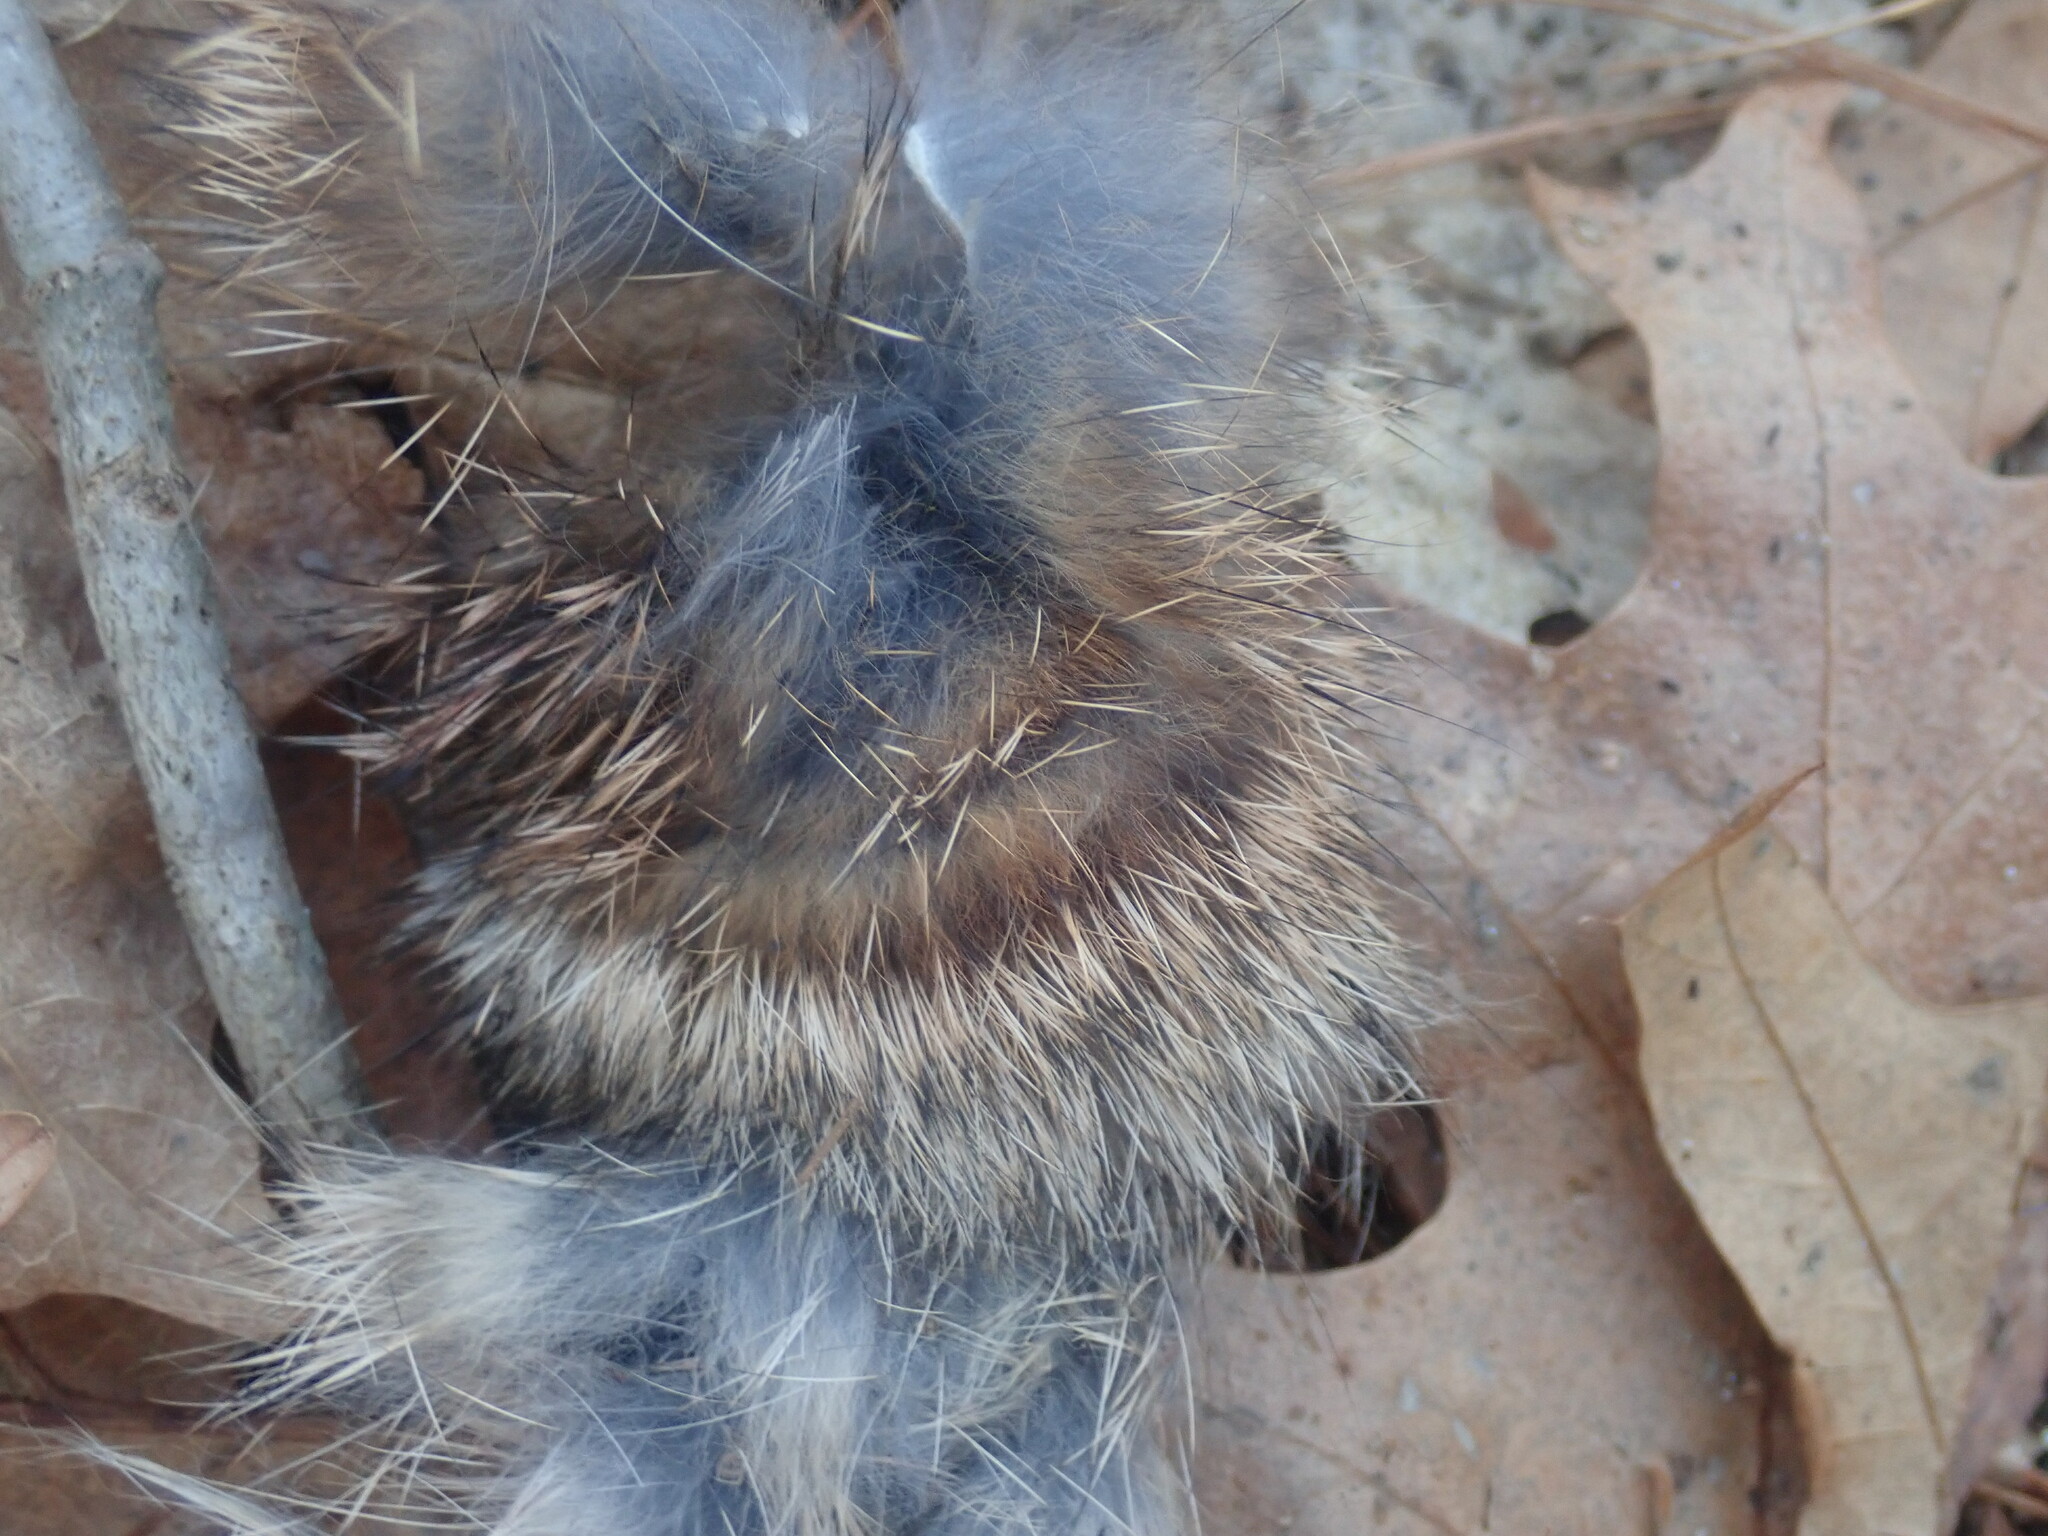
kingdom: Animalia
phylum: Chordata
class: Mammalia
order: Lagomorpha
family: Leporidae
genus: Sylvilagus
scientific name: Sylvilagus floridanus
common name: Eastern cottontail
